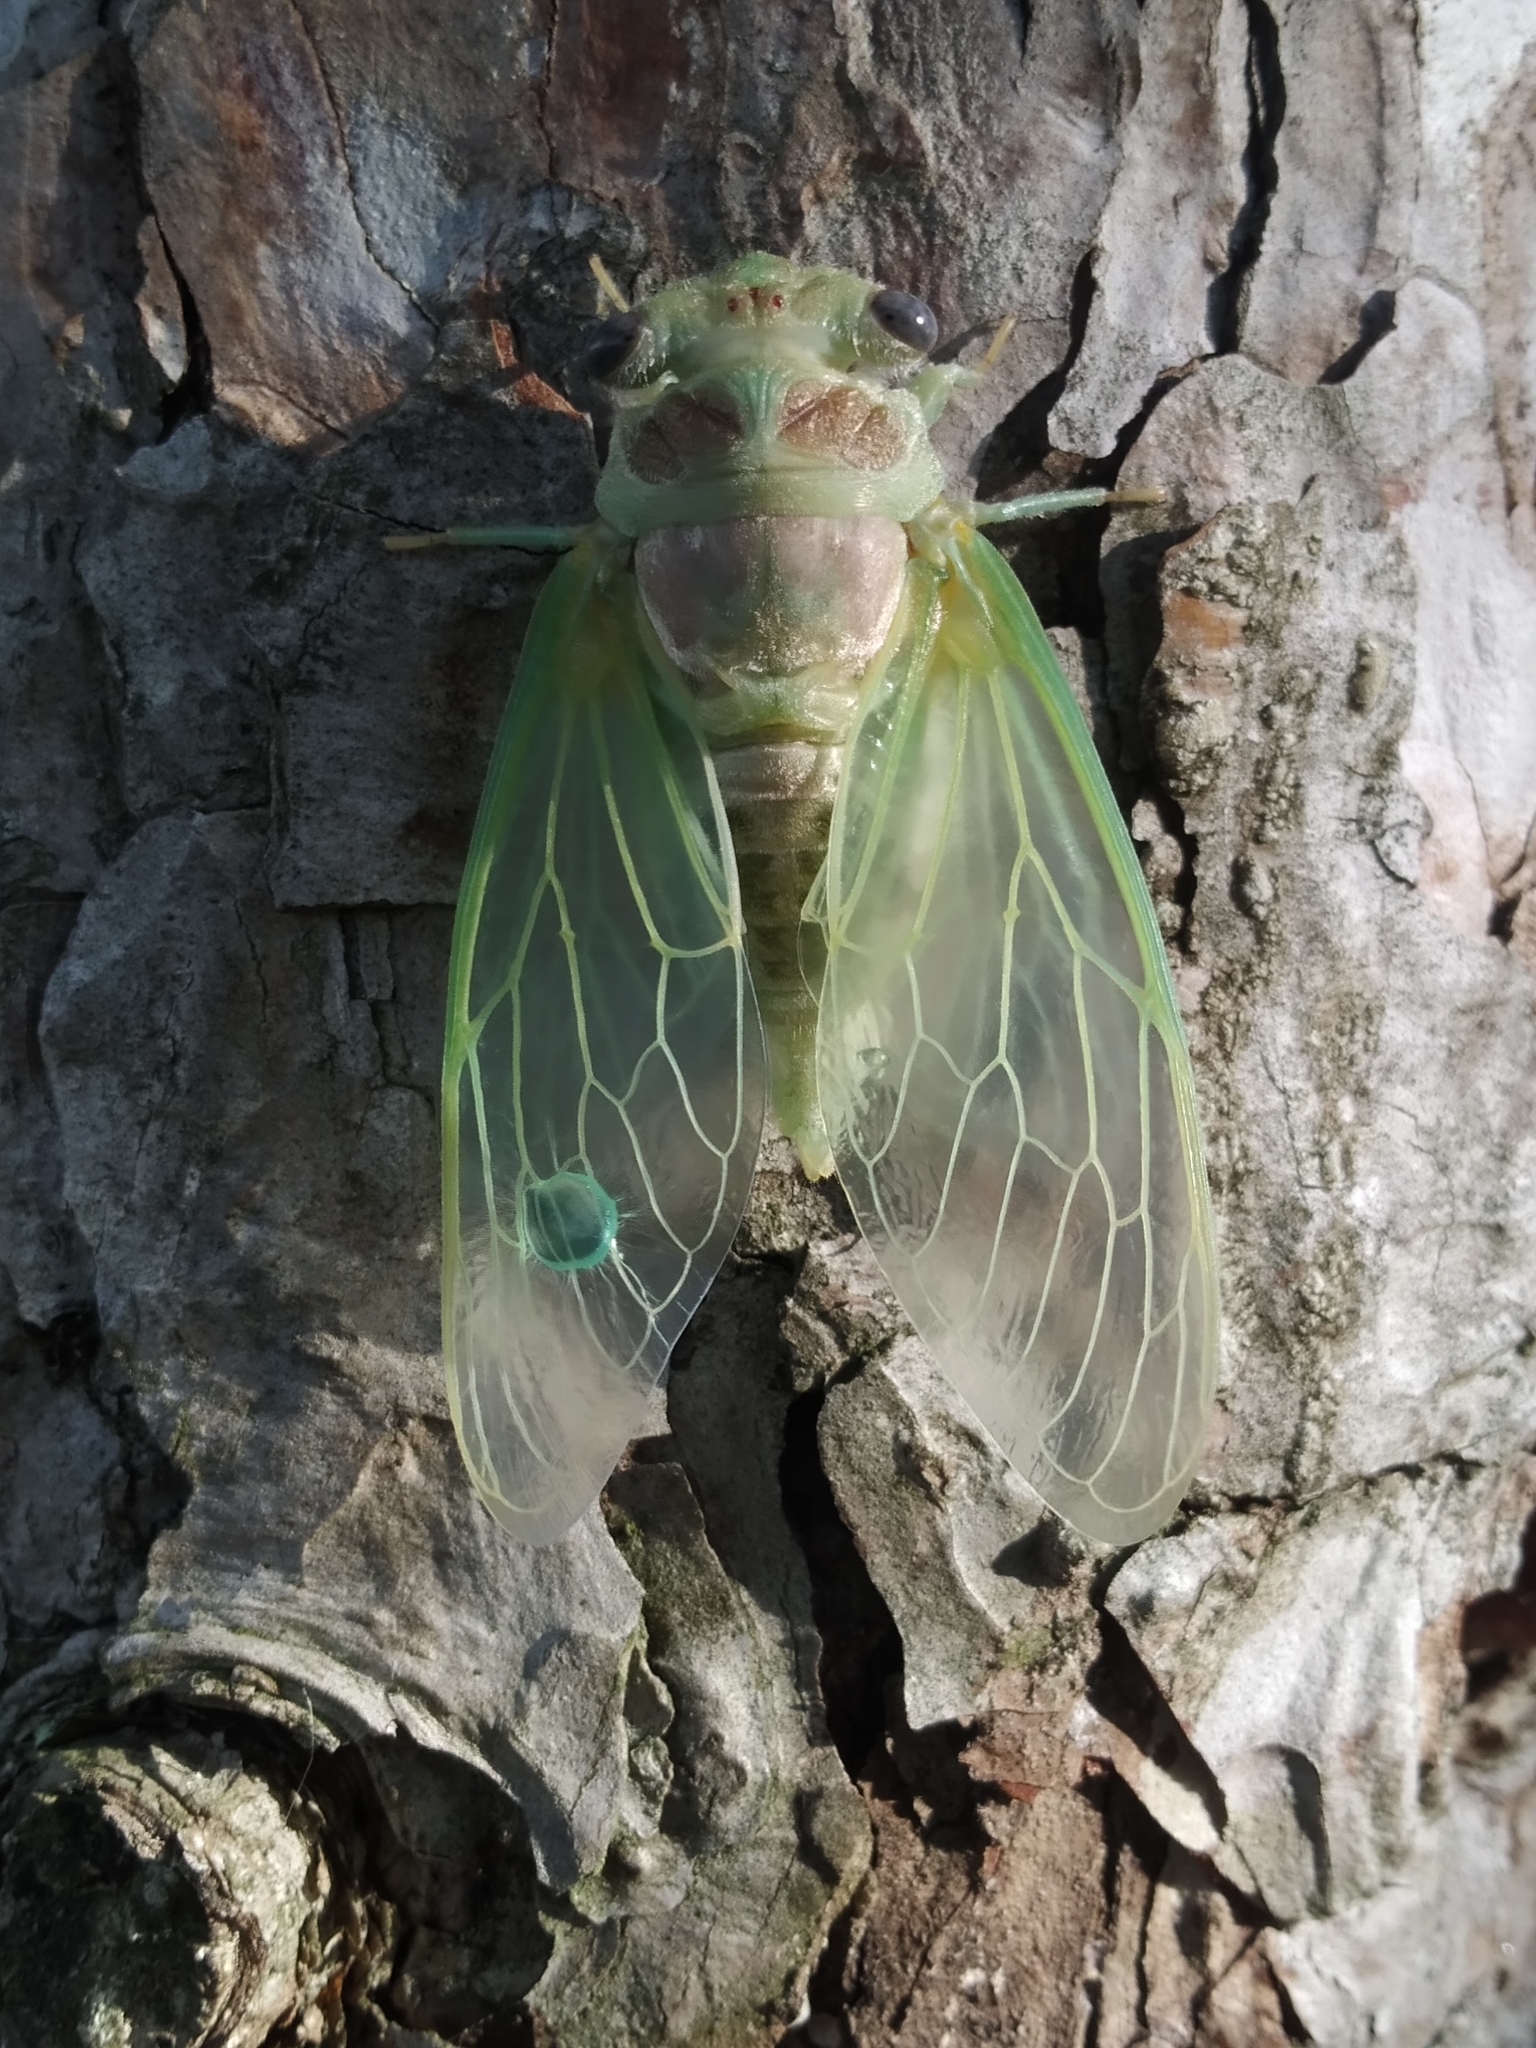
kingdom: Animalia
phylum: Arthropoda
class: Insecta
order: Hemiptera
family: Cicadidae
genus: Lyristes
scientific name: Lyristes plebejus
